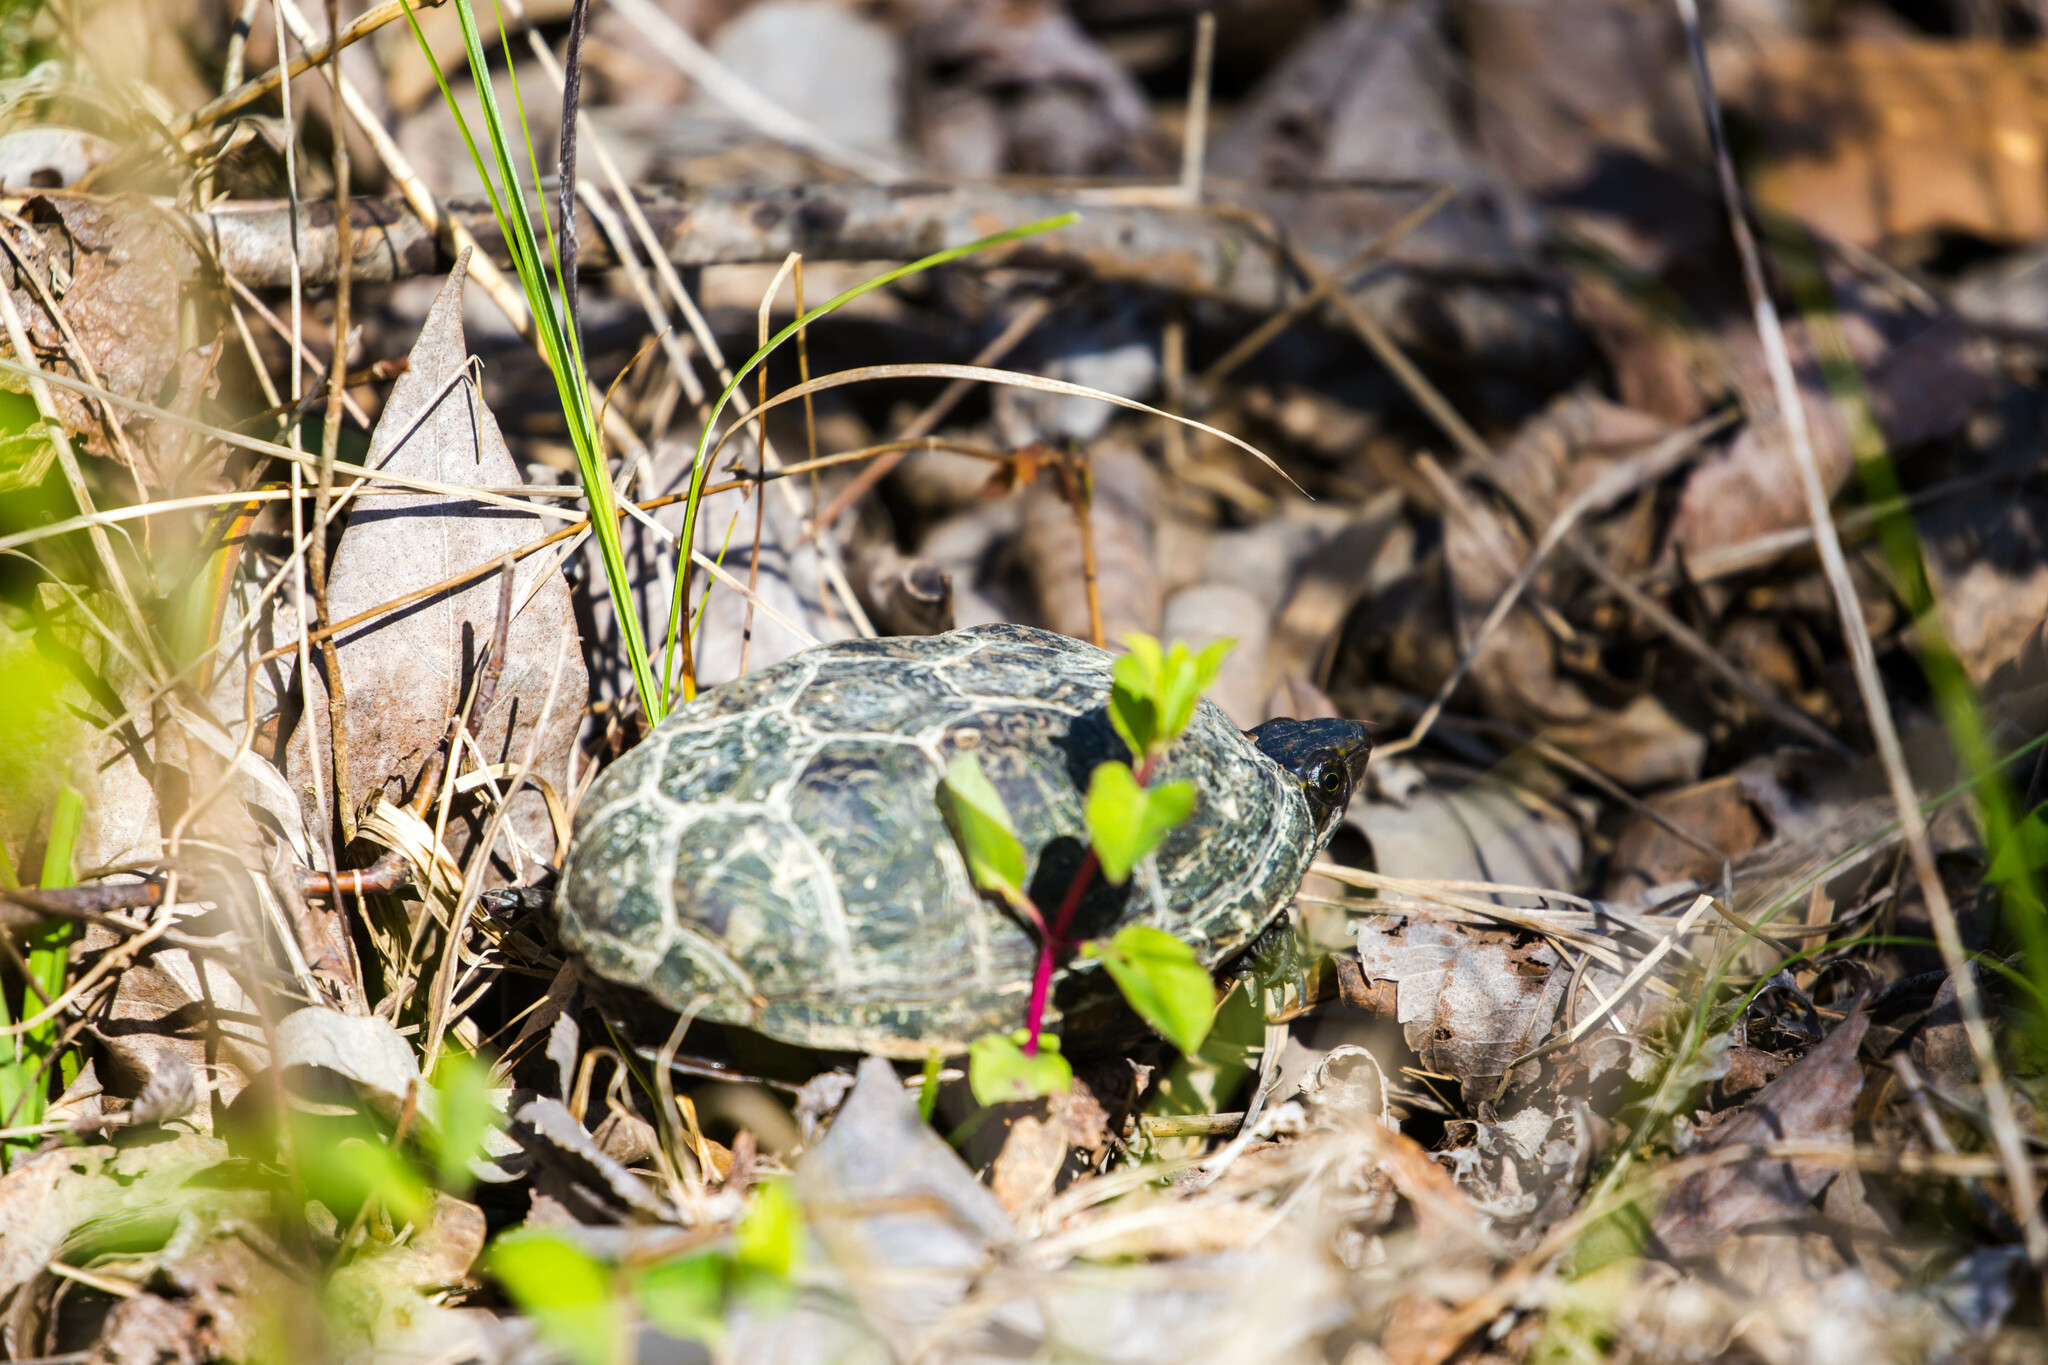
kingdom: Animalia
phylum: Chordata
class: Testudines
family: Kinosternidae
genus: Kinosternon
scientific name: Kinosternon subrubrum
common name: Eastern mud turtle
